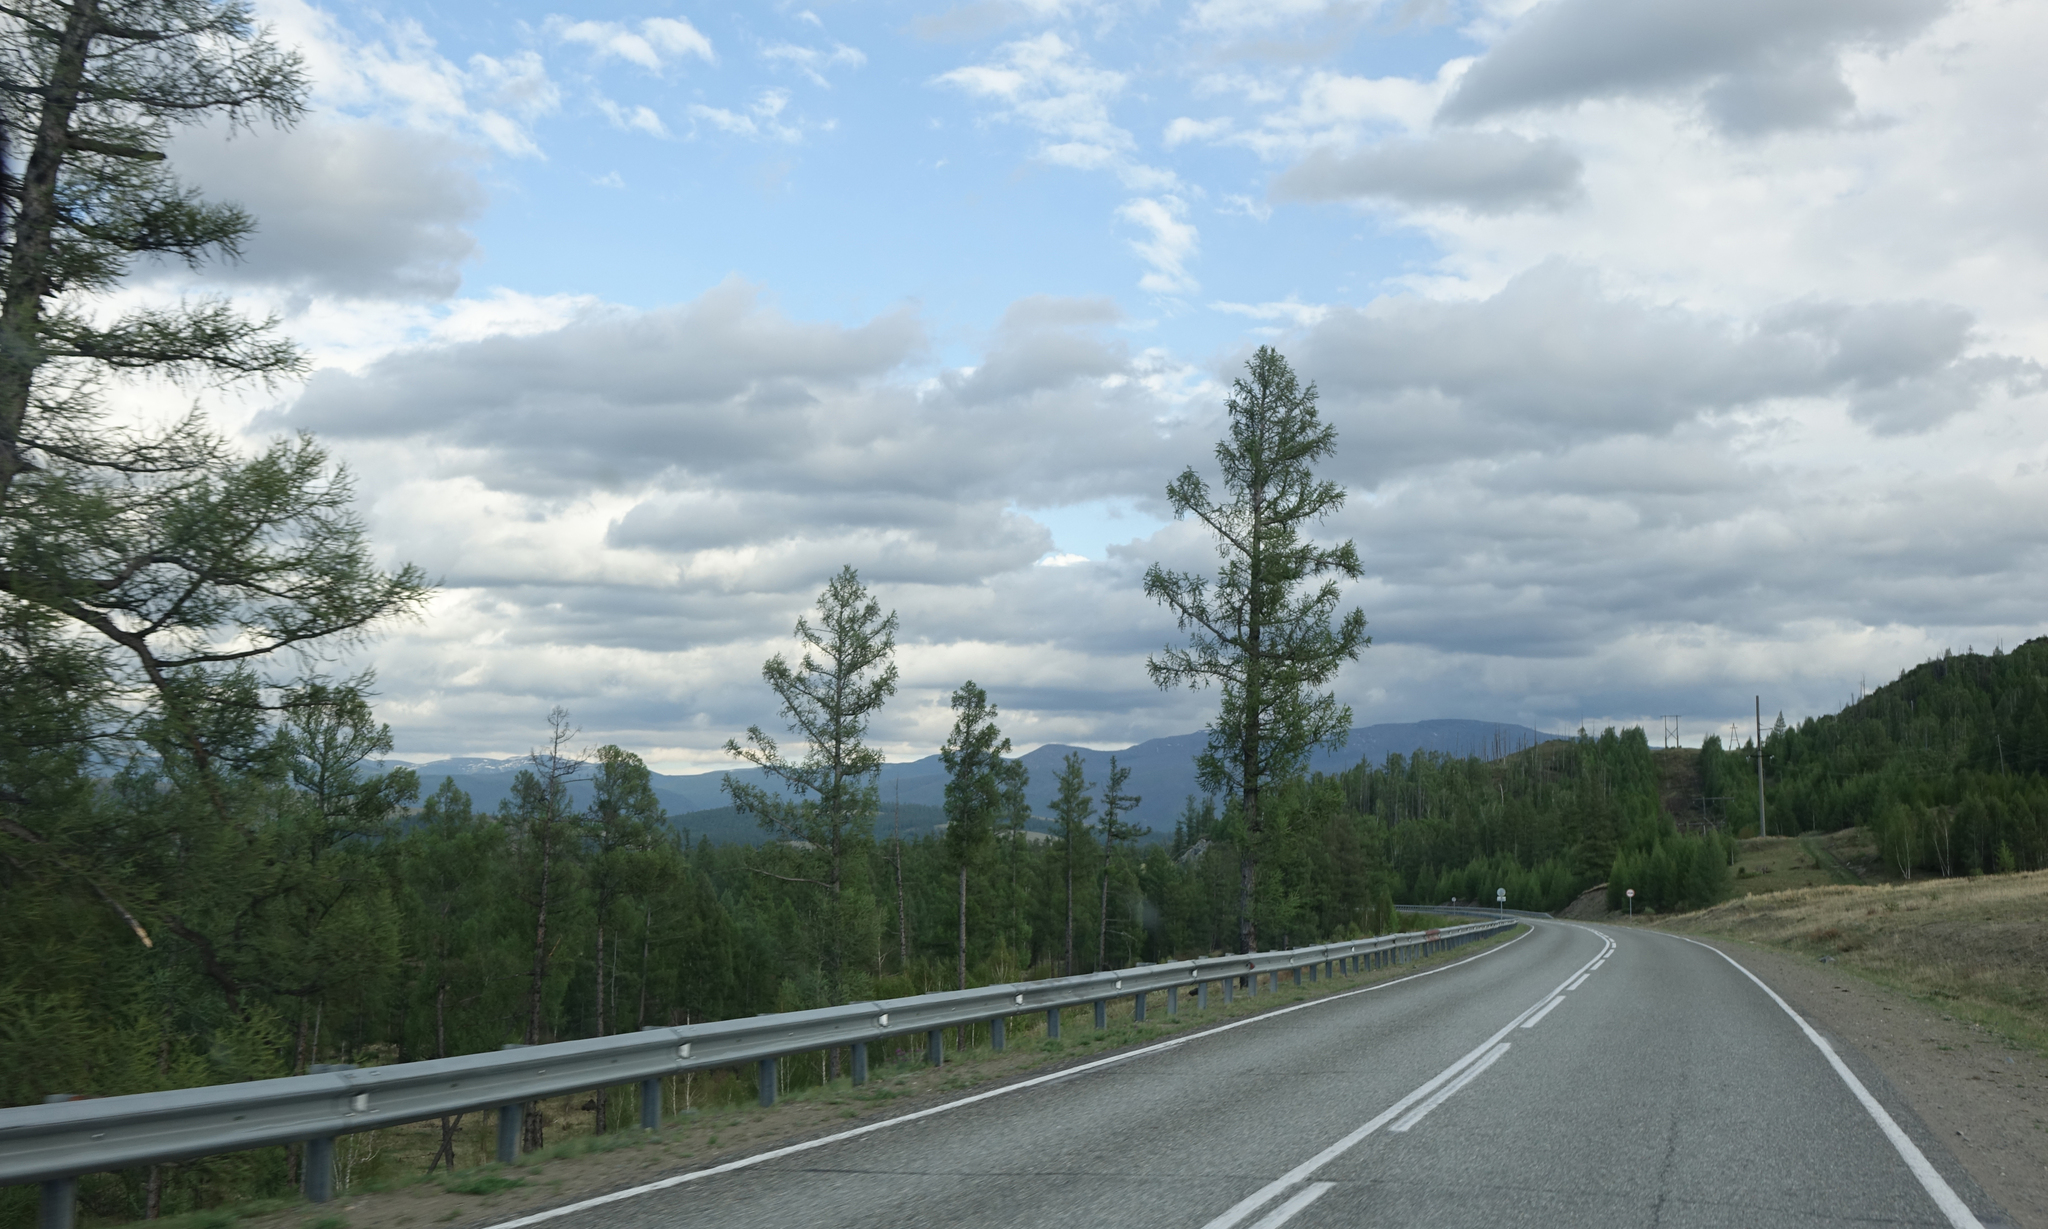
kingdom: Plantae
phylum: Tracheophyta
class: Pinopsida
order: Pinales
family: Pinaceae
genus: Larix
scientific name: Larix sibirica
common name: Siberian larch
